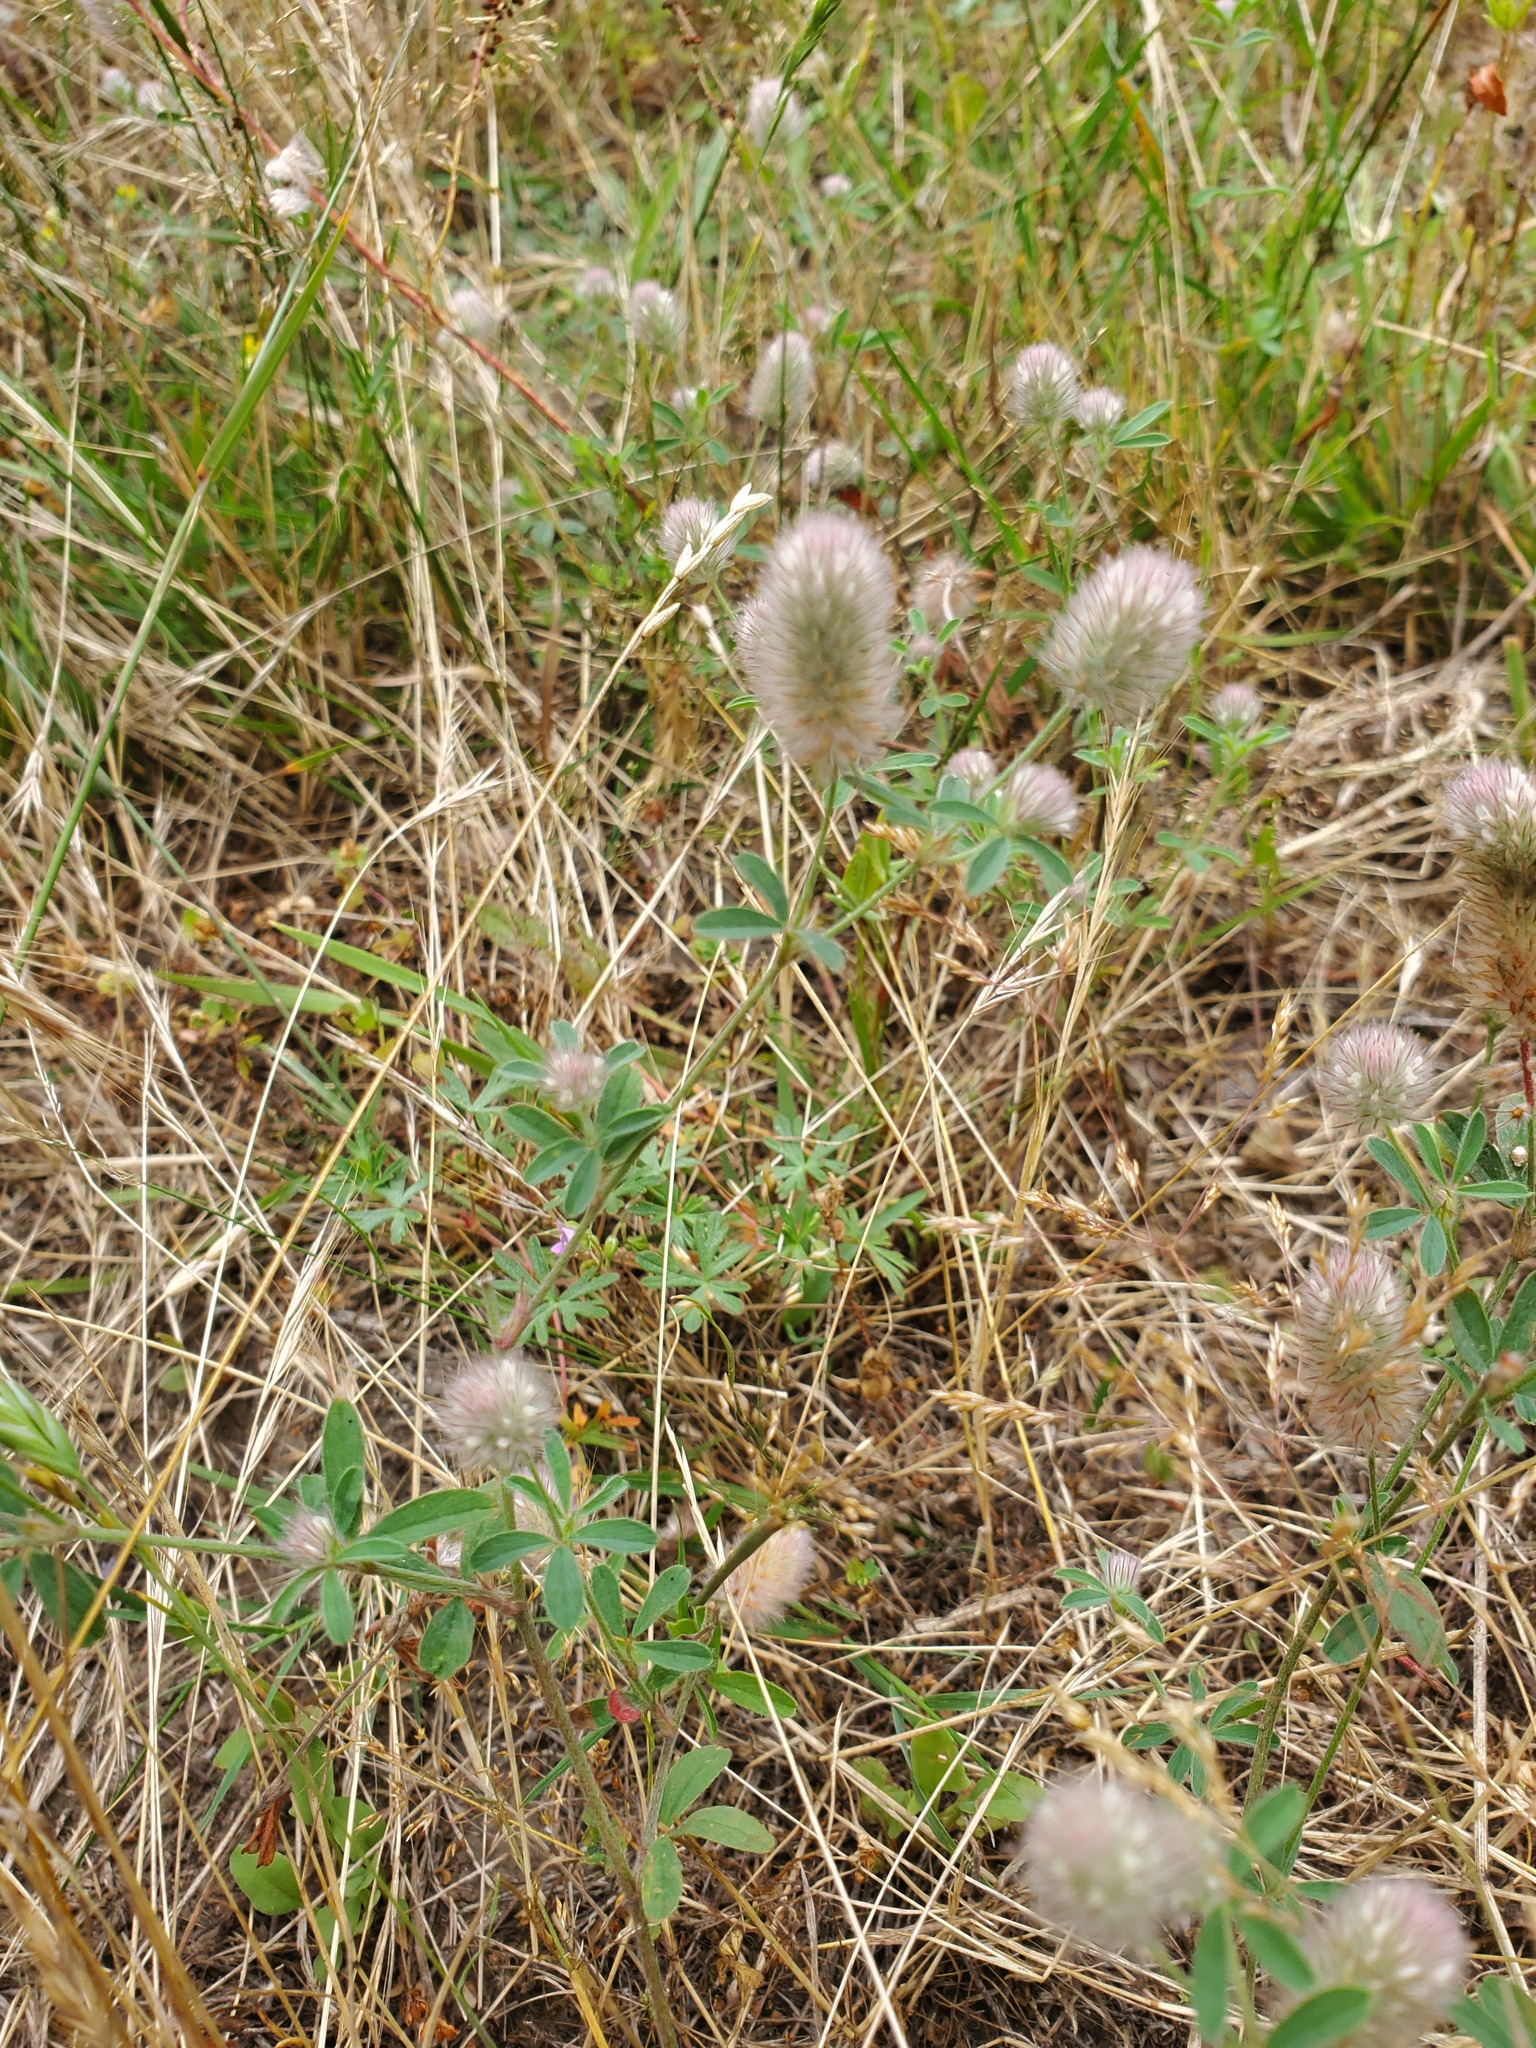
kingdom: Plantae
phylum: Tracheophyta
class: Magnoliopsida
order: Fabales
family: Fabaceae
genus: Trifolium
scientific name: Trifolium arvense
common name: Hare's-foot clover
